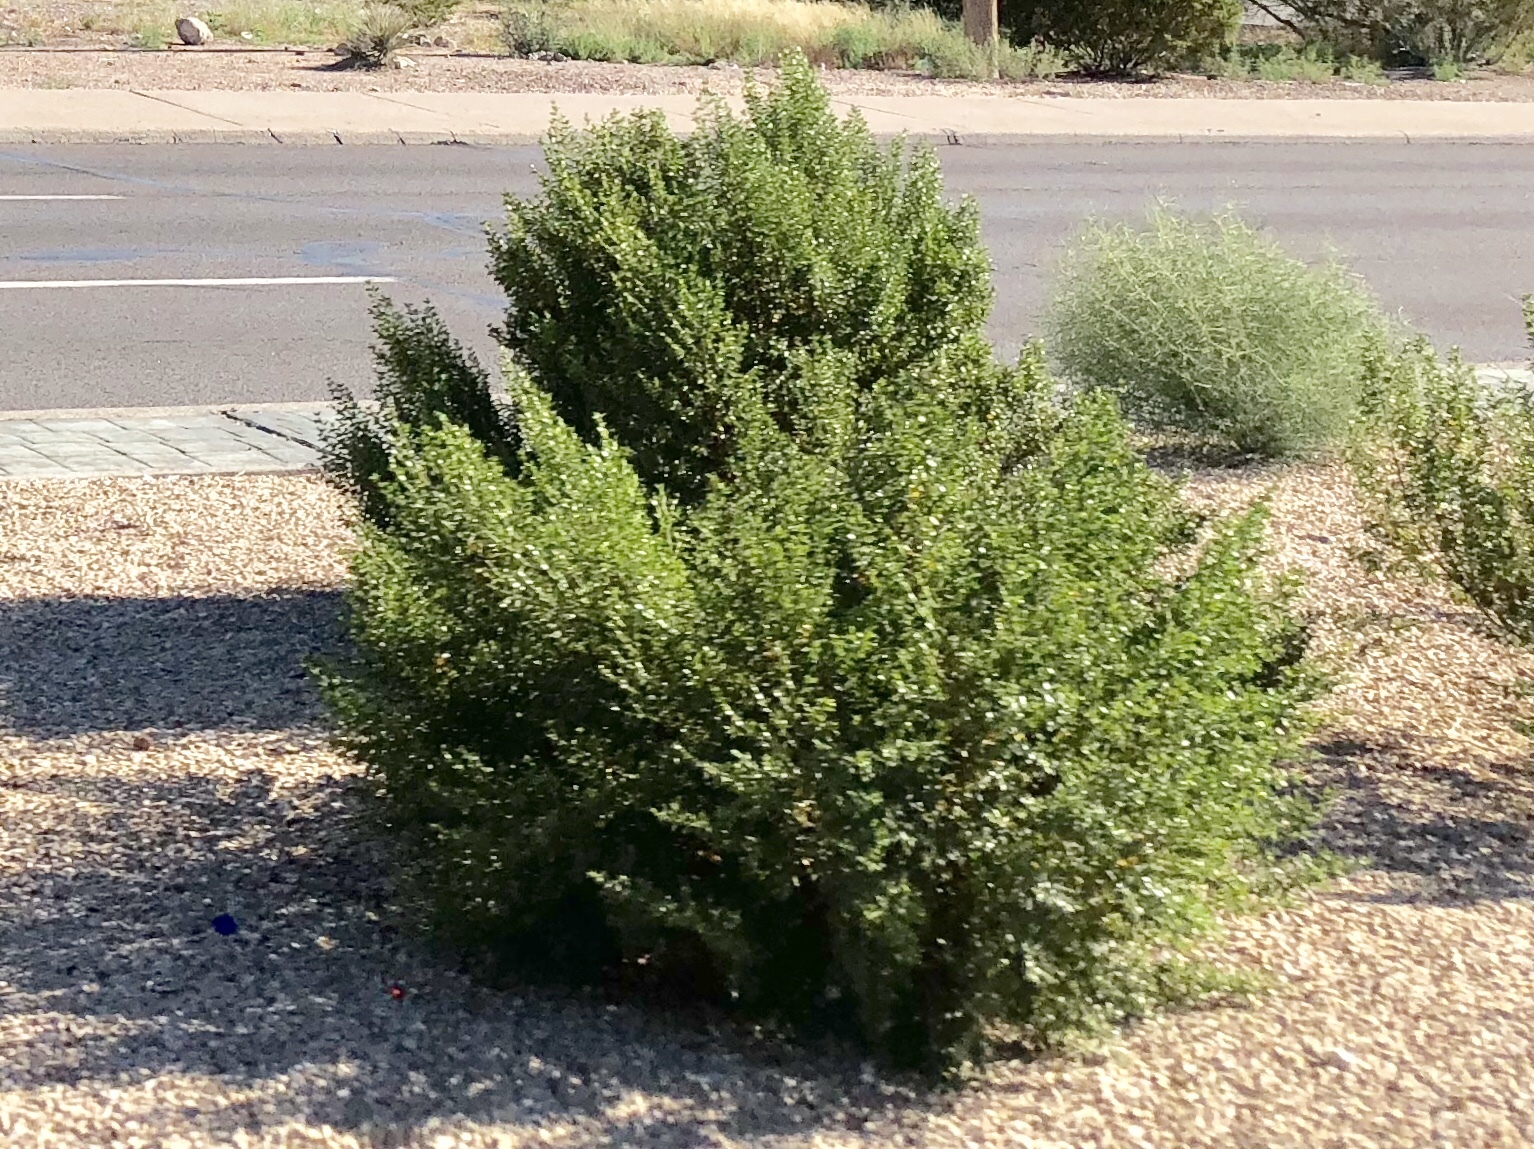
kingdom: Plantae
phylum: Tracheophyta
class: Magnoliopsida
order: Zygophyllales
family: Zygophyllaceae
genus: Larrea
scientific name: Larrea tridentata
